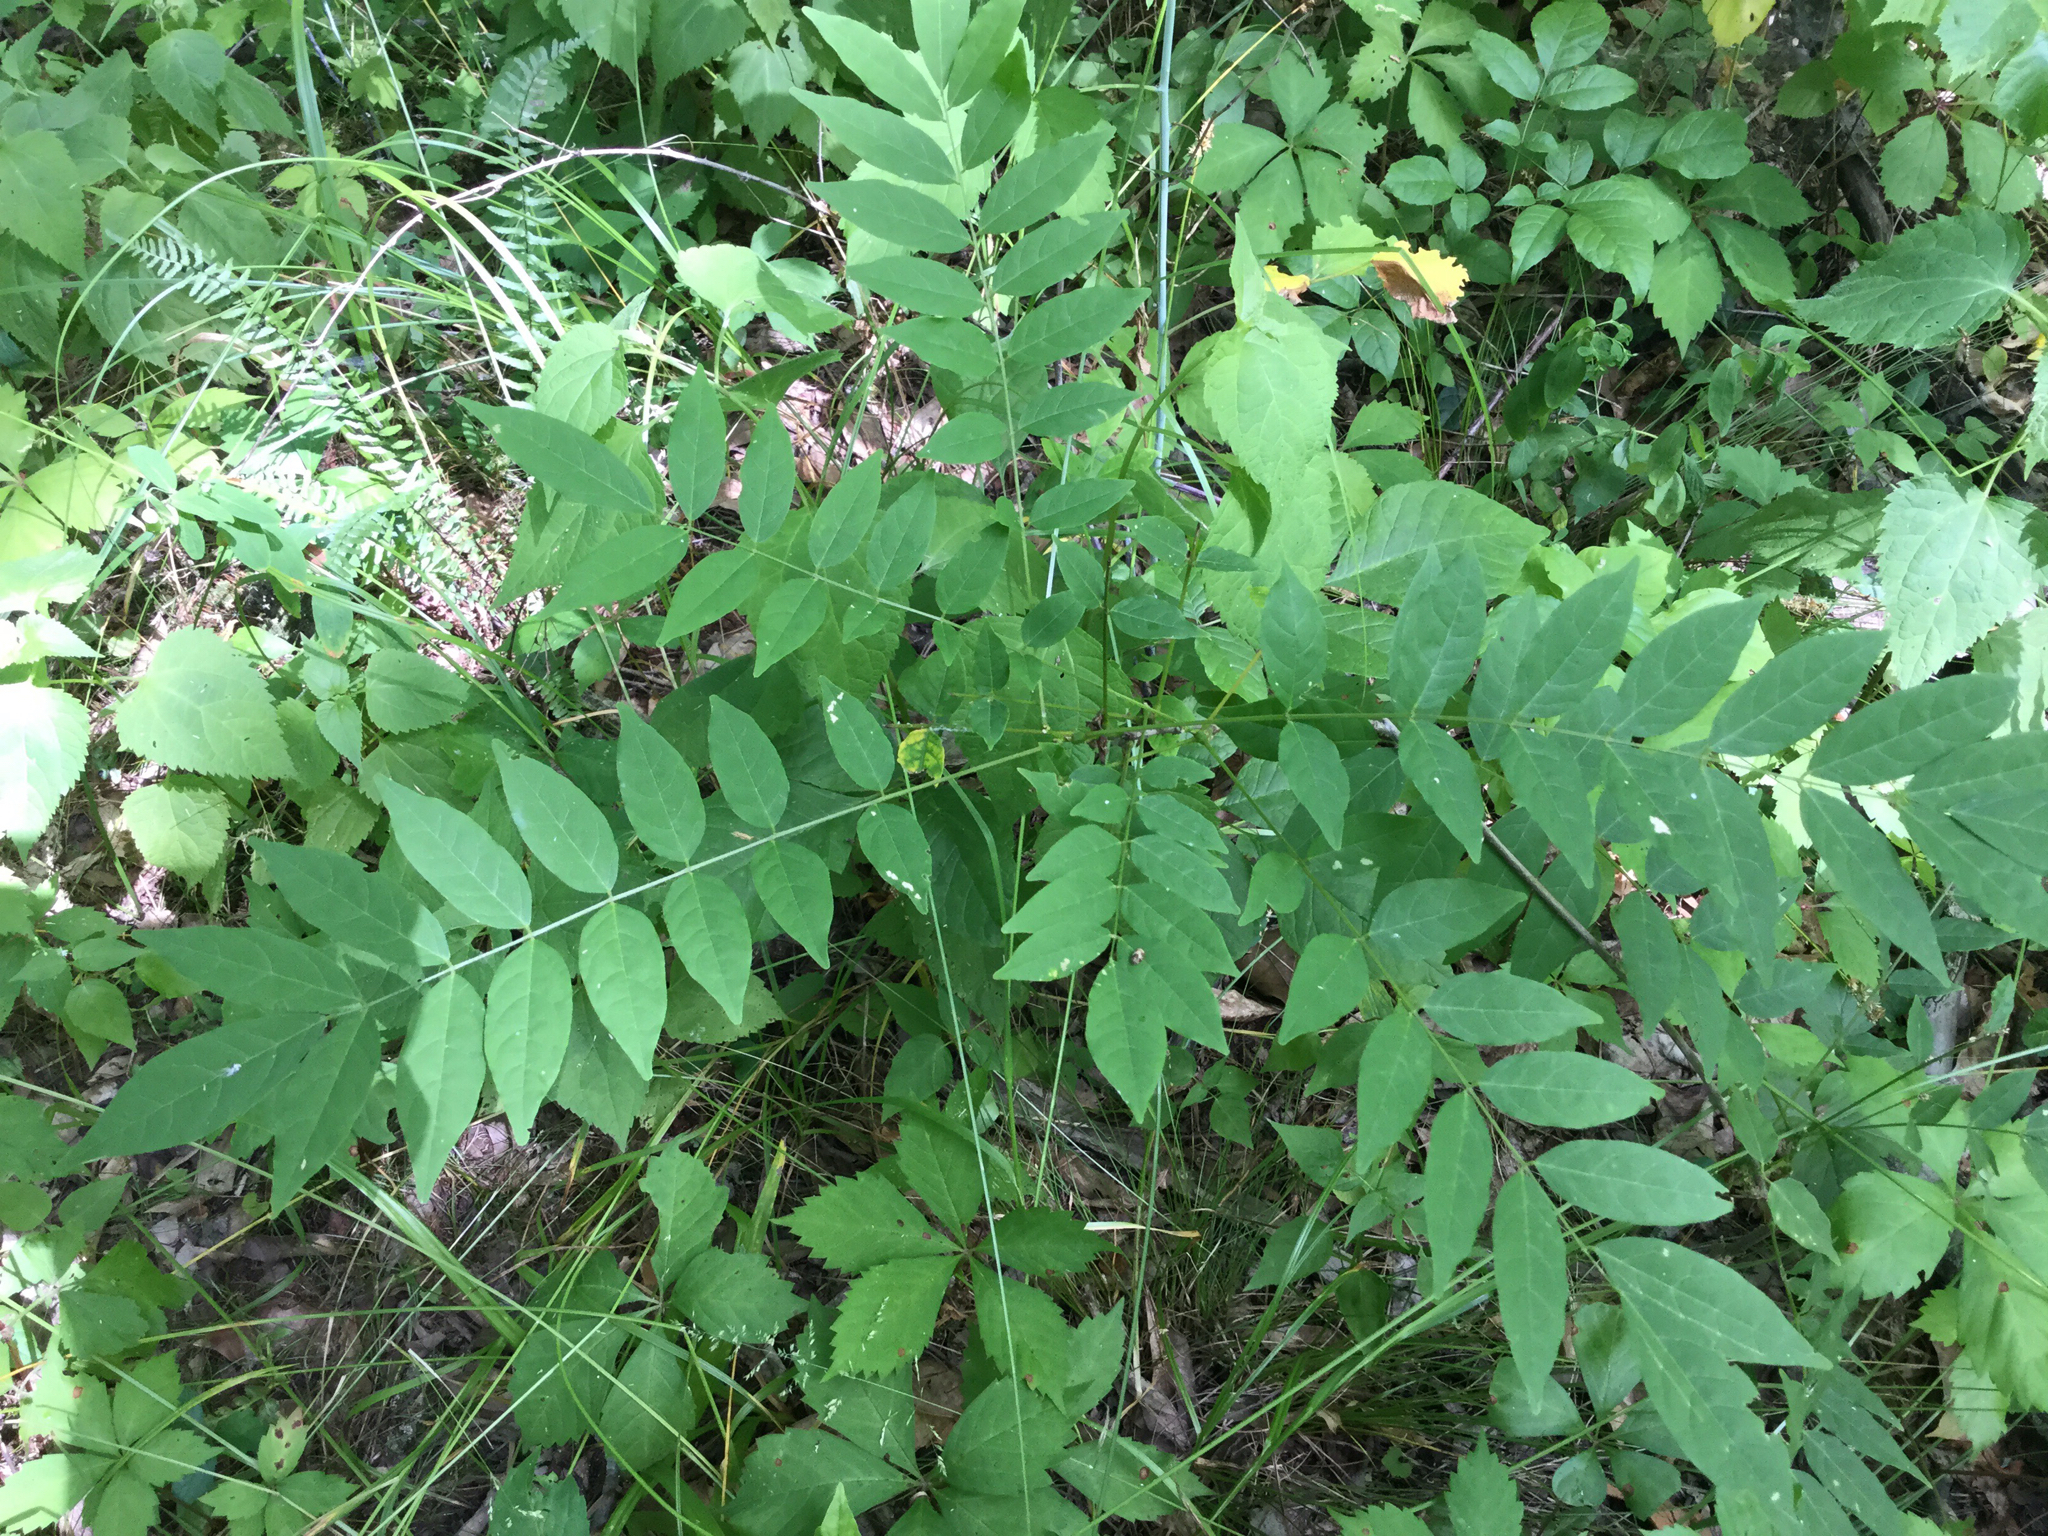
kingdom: Plantae
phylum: Tracheophyta
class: Magnoliopsida
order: Fabales
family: Fabaceae
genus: Wisteria
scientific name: Wisteria sinensis
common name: Chinese wisteria
